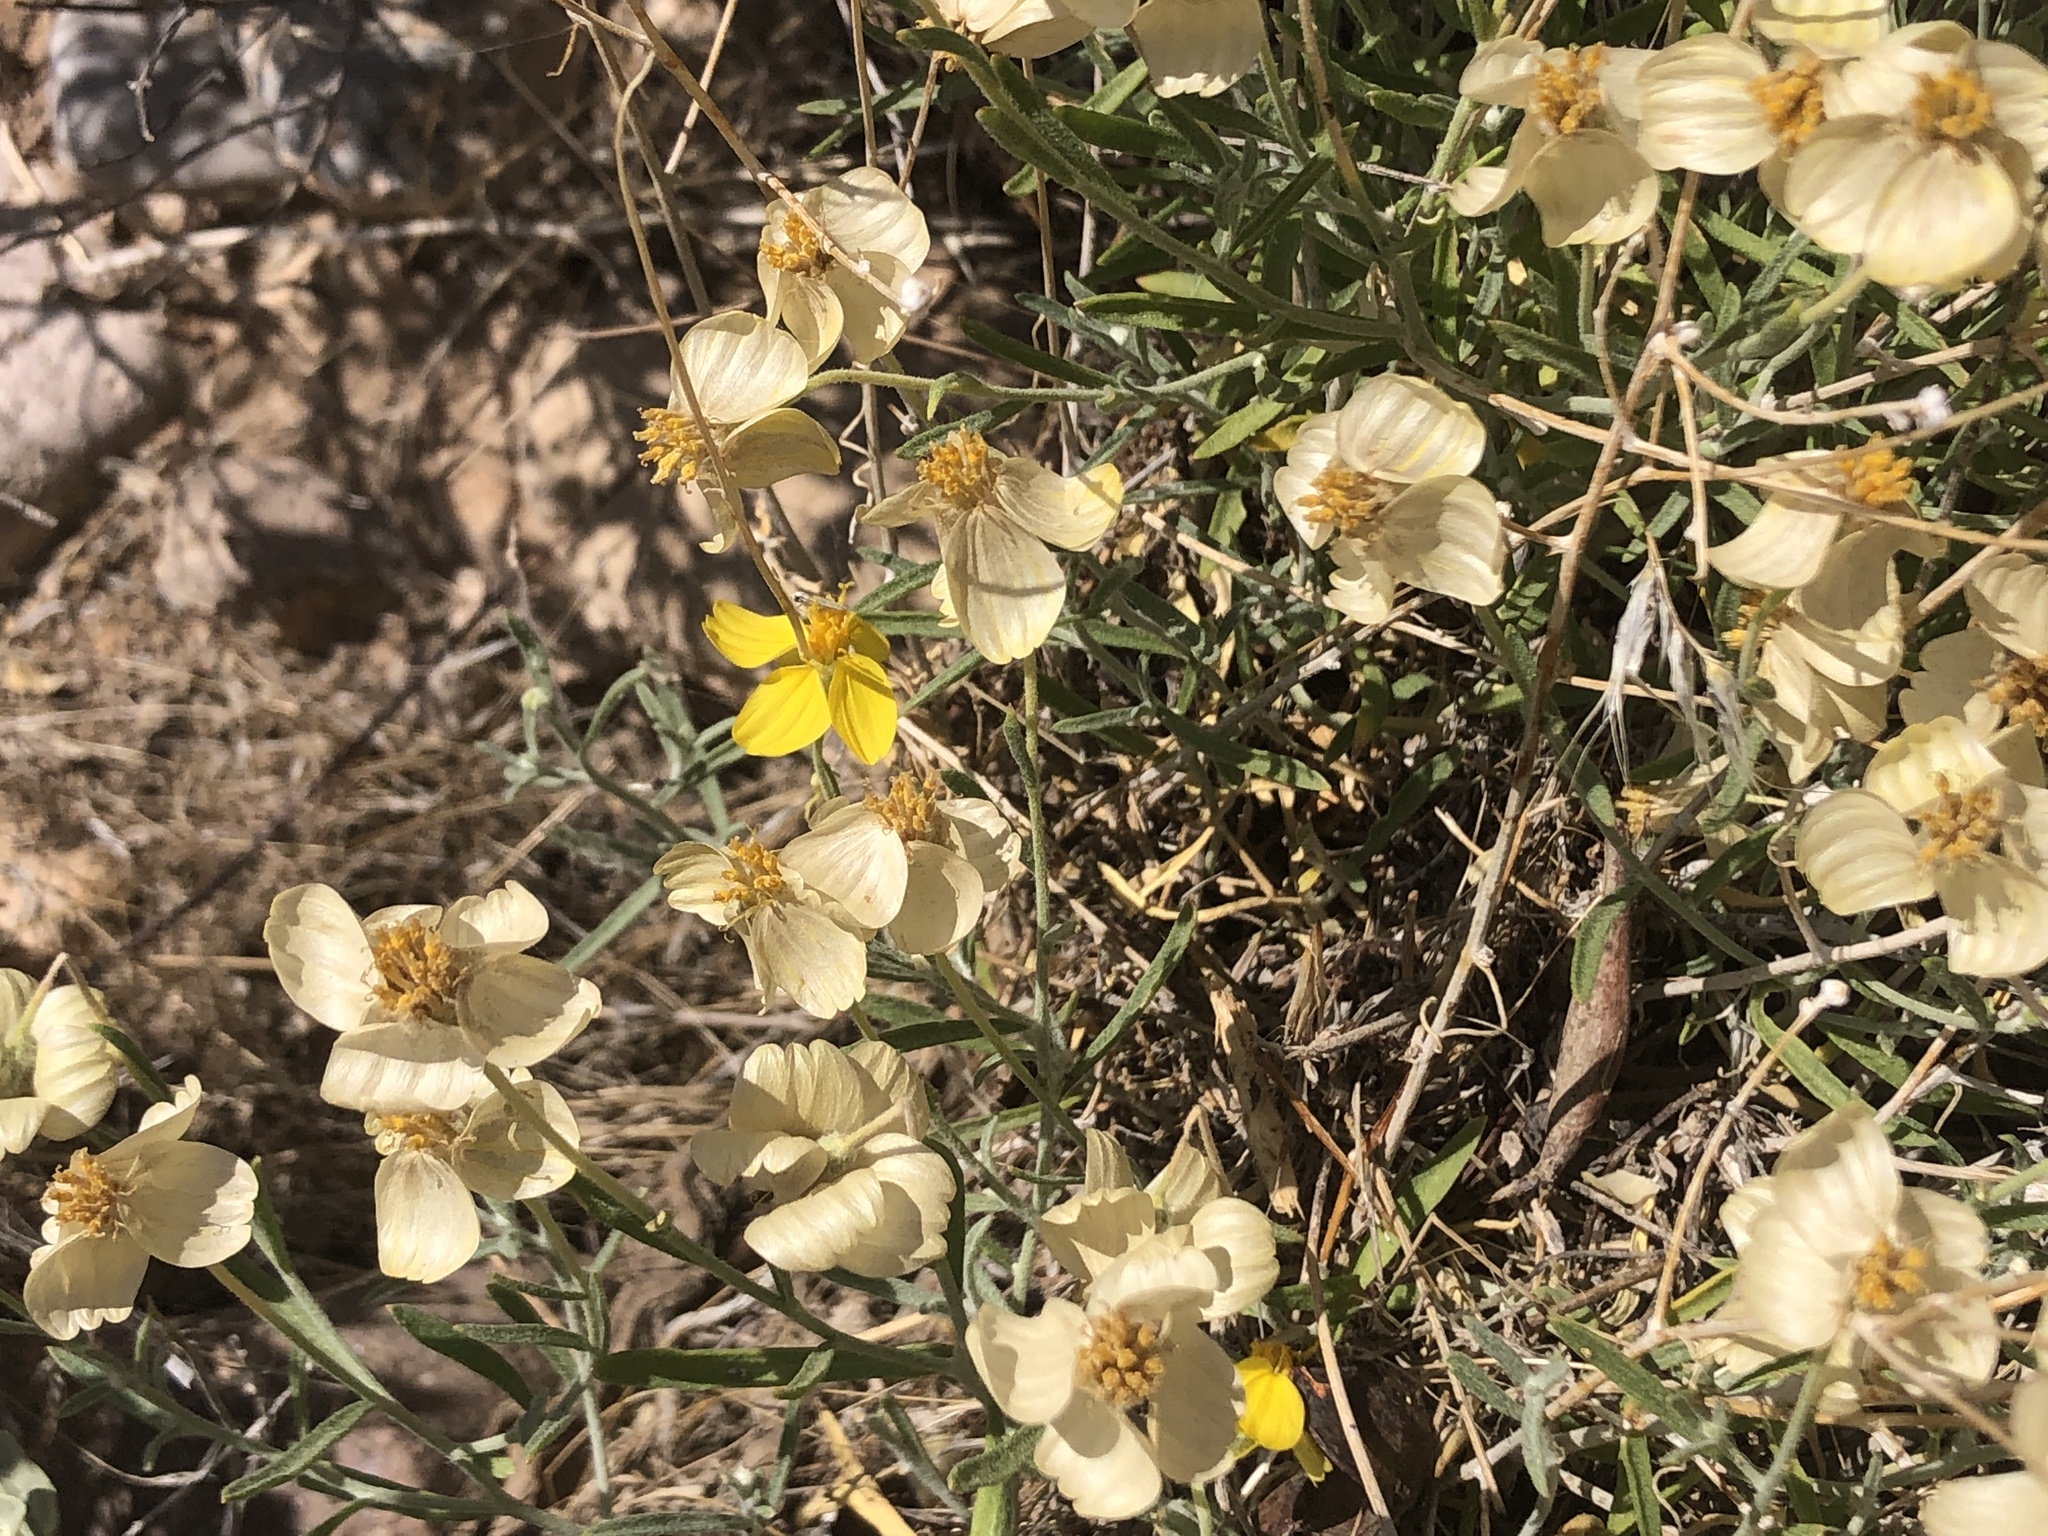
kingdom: Plantae
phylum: Tracheophyta
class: Magnoliopsida
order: Asterales
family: Asteraceae
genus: Psilostrophe
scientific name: Psilostrophe cooperi
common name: White-stem paper-flower
